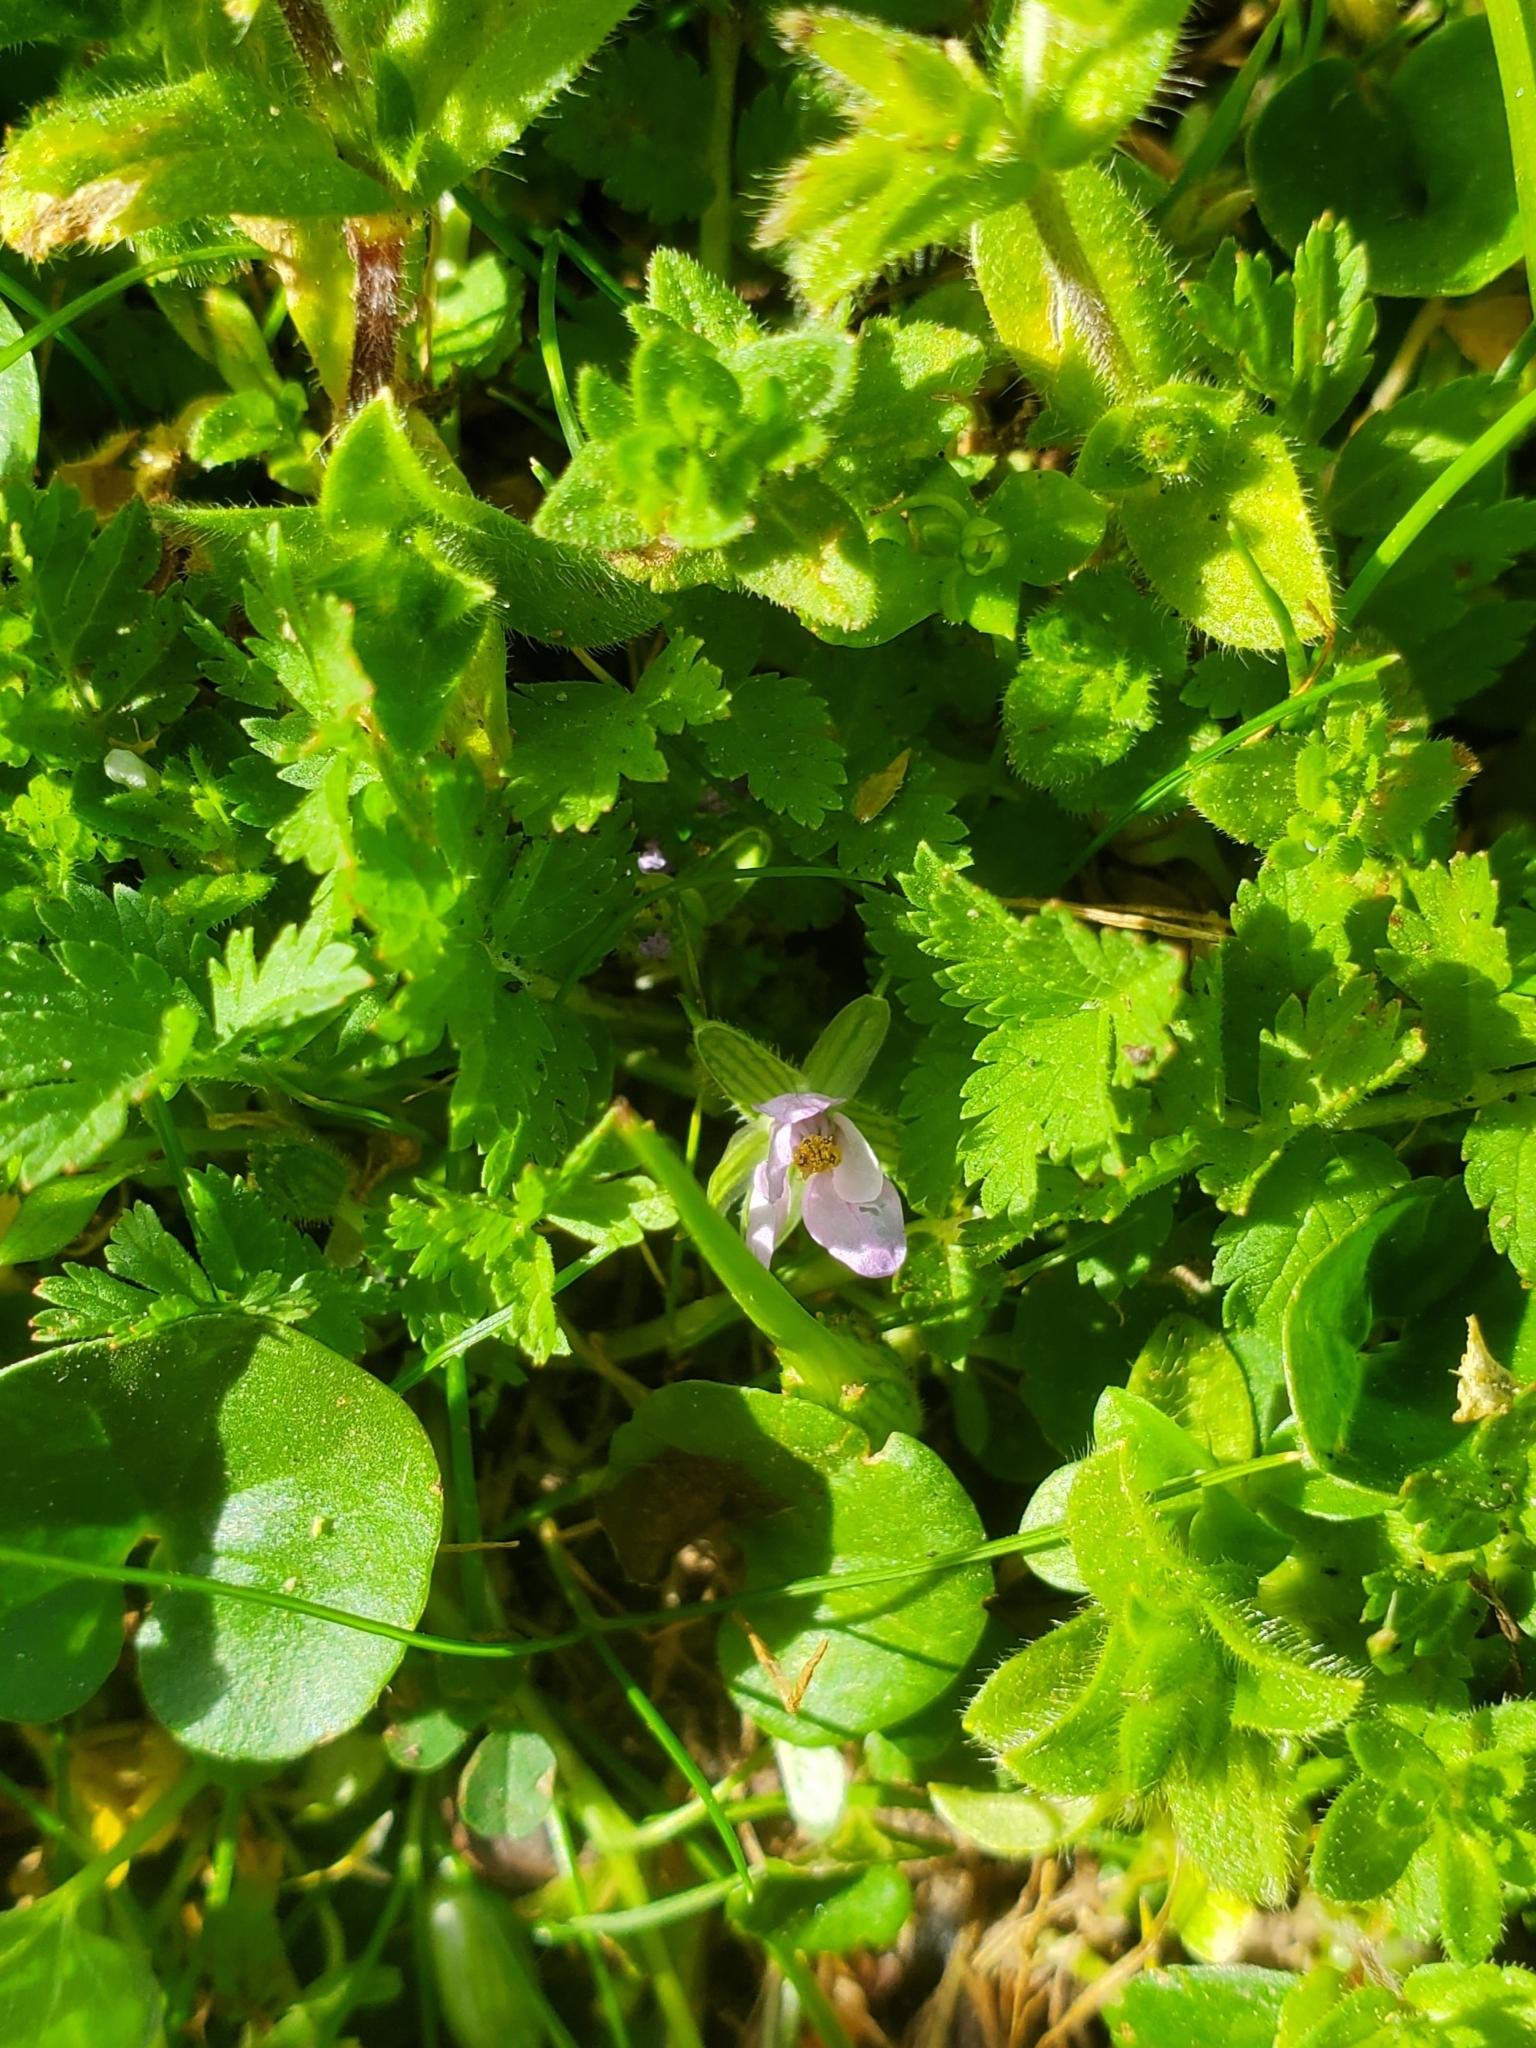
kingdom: Plantae
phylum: Tracheophyta
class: Magnoliopsida
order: Geraniales
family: Geraniaceae
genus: Erodium
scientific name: Erodium moschatum
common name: Musk stork's-bill
